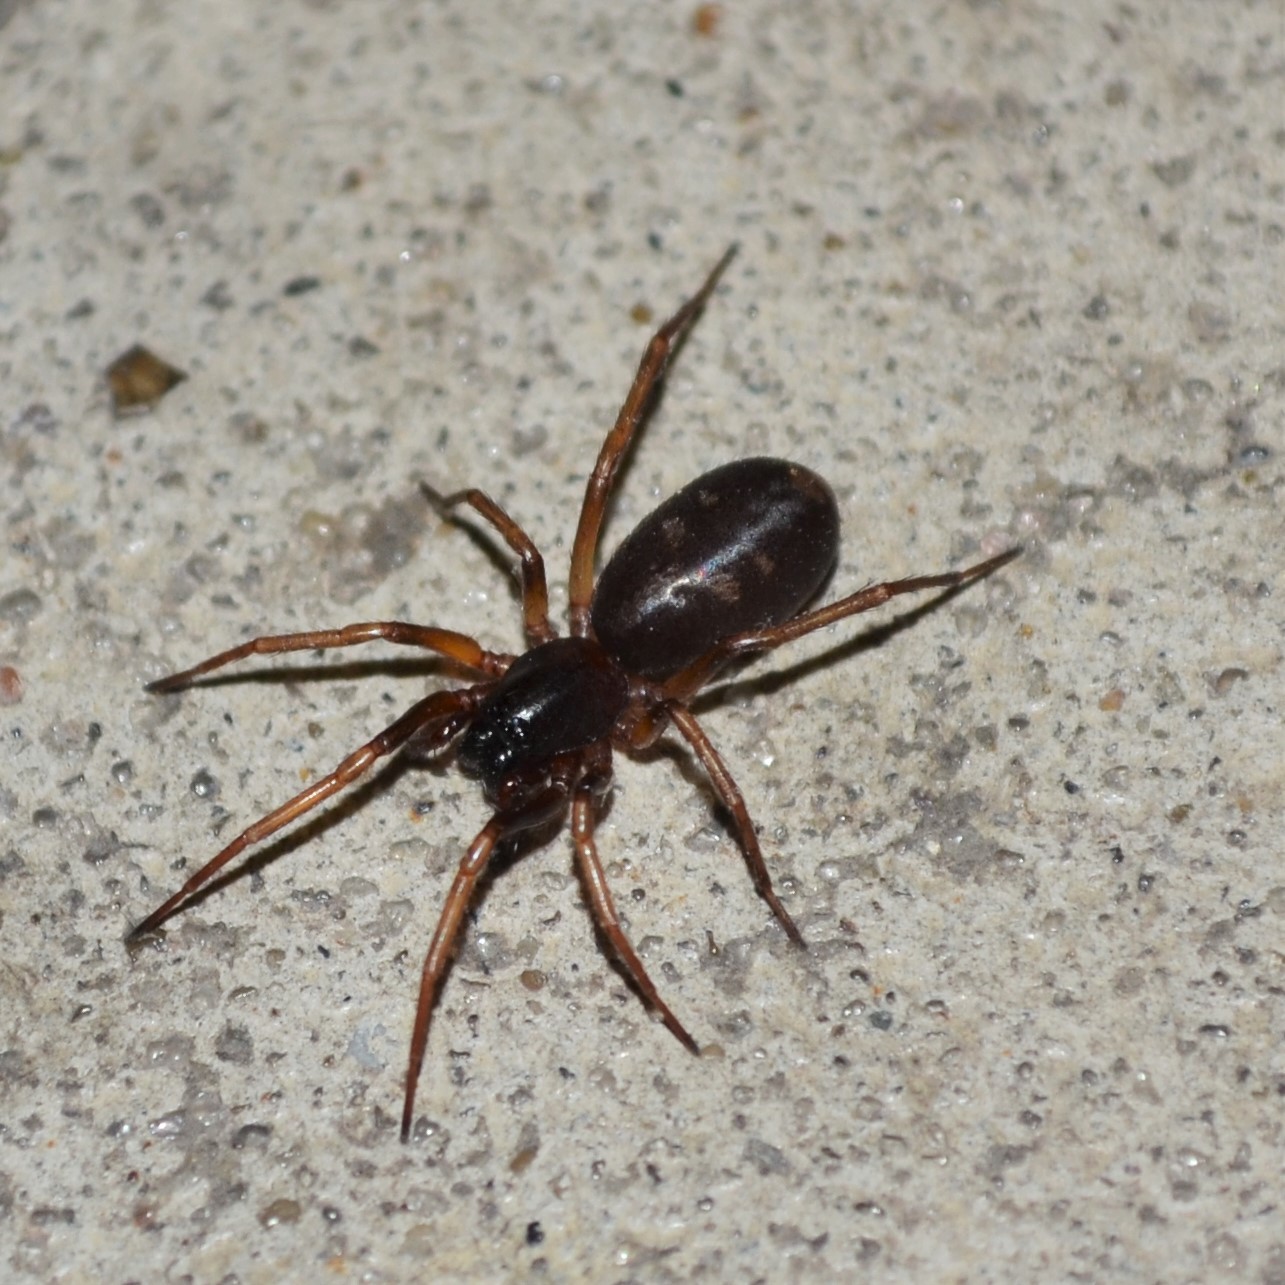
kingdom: Animalia
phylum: Arthropoda
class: Arachnida
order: Araneae
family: Corinnidae
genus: Falconina
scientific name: Falconina gracilis
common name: Antmimic spider
